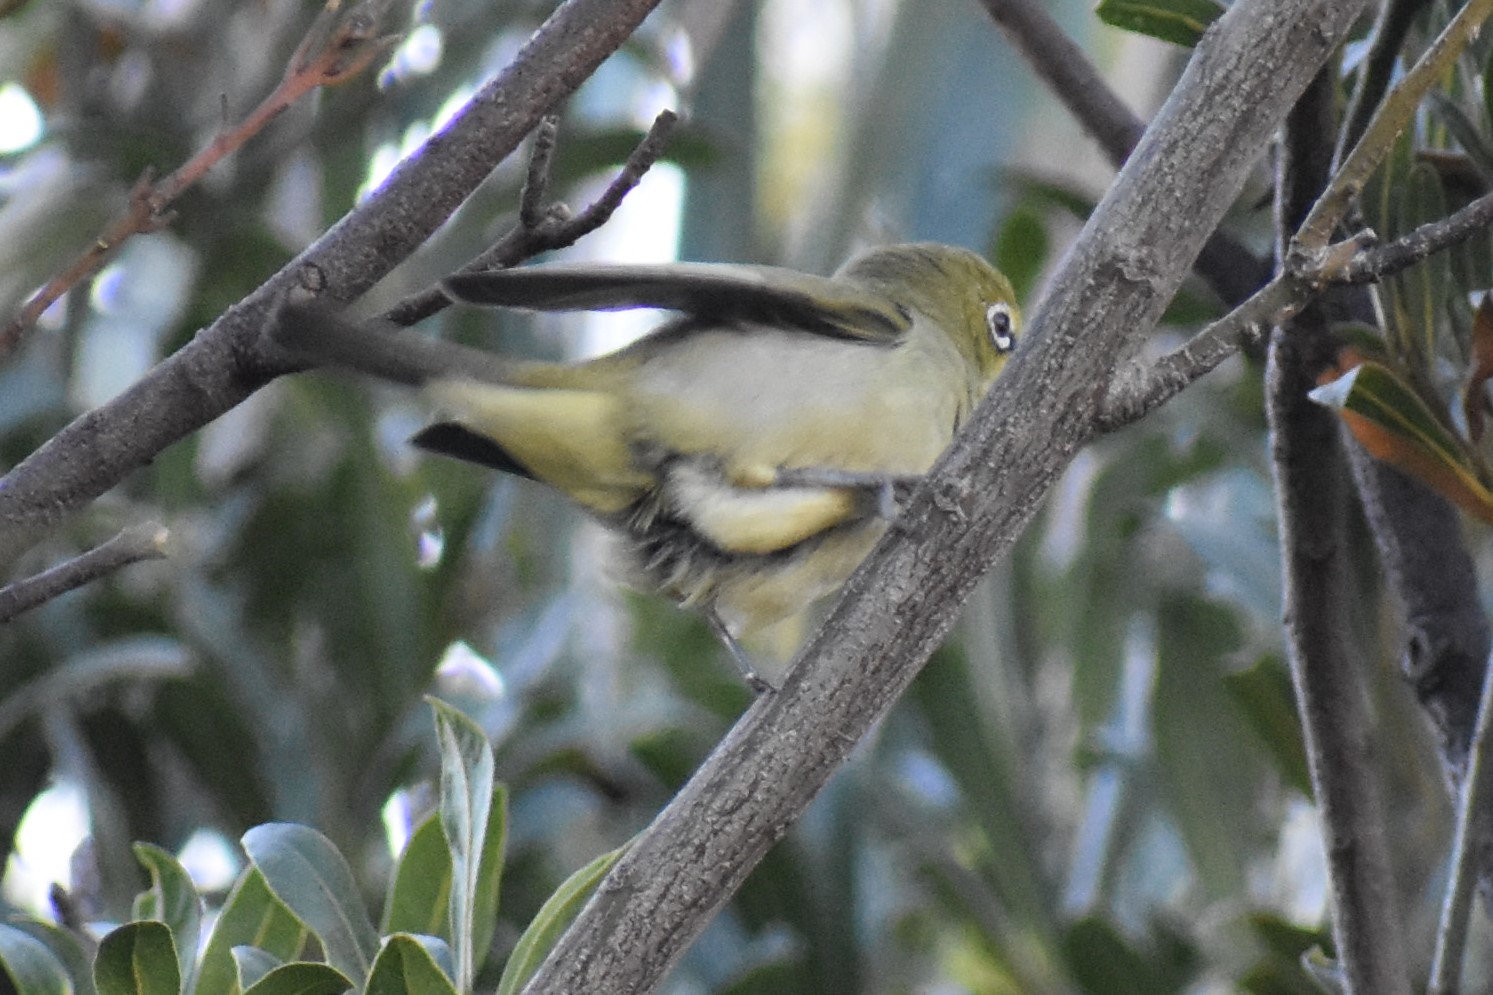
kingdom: Animalia
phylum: Chordata
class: Aves
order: Passeriformes
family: Zosteropidae
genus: Zosterops
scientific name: Zosterops virens
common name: Cape white-eye
